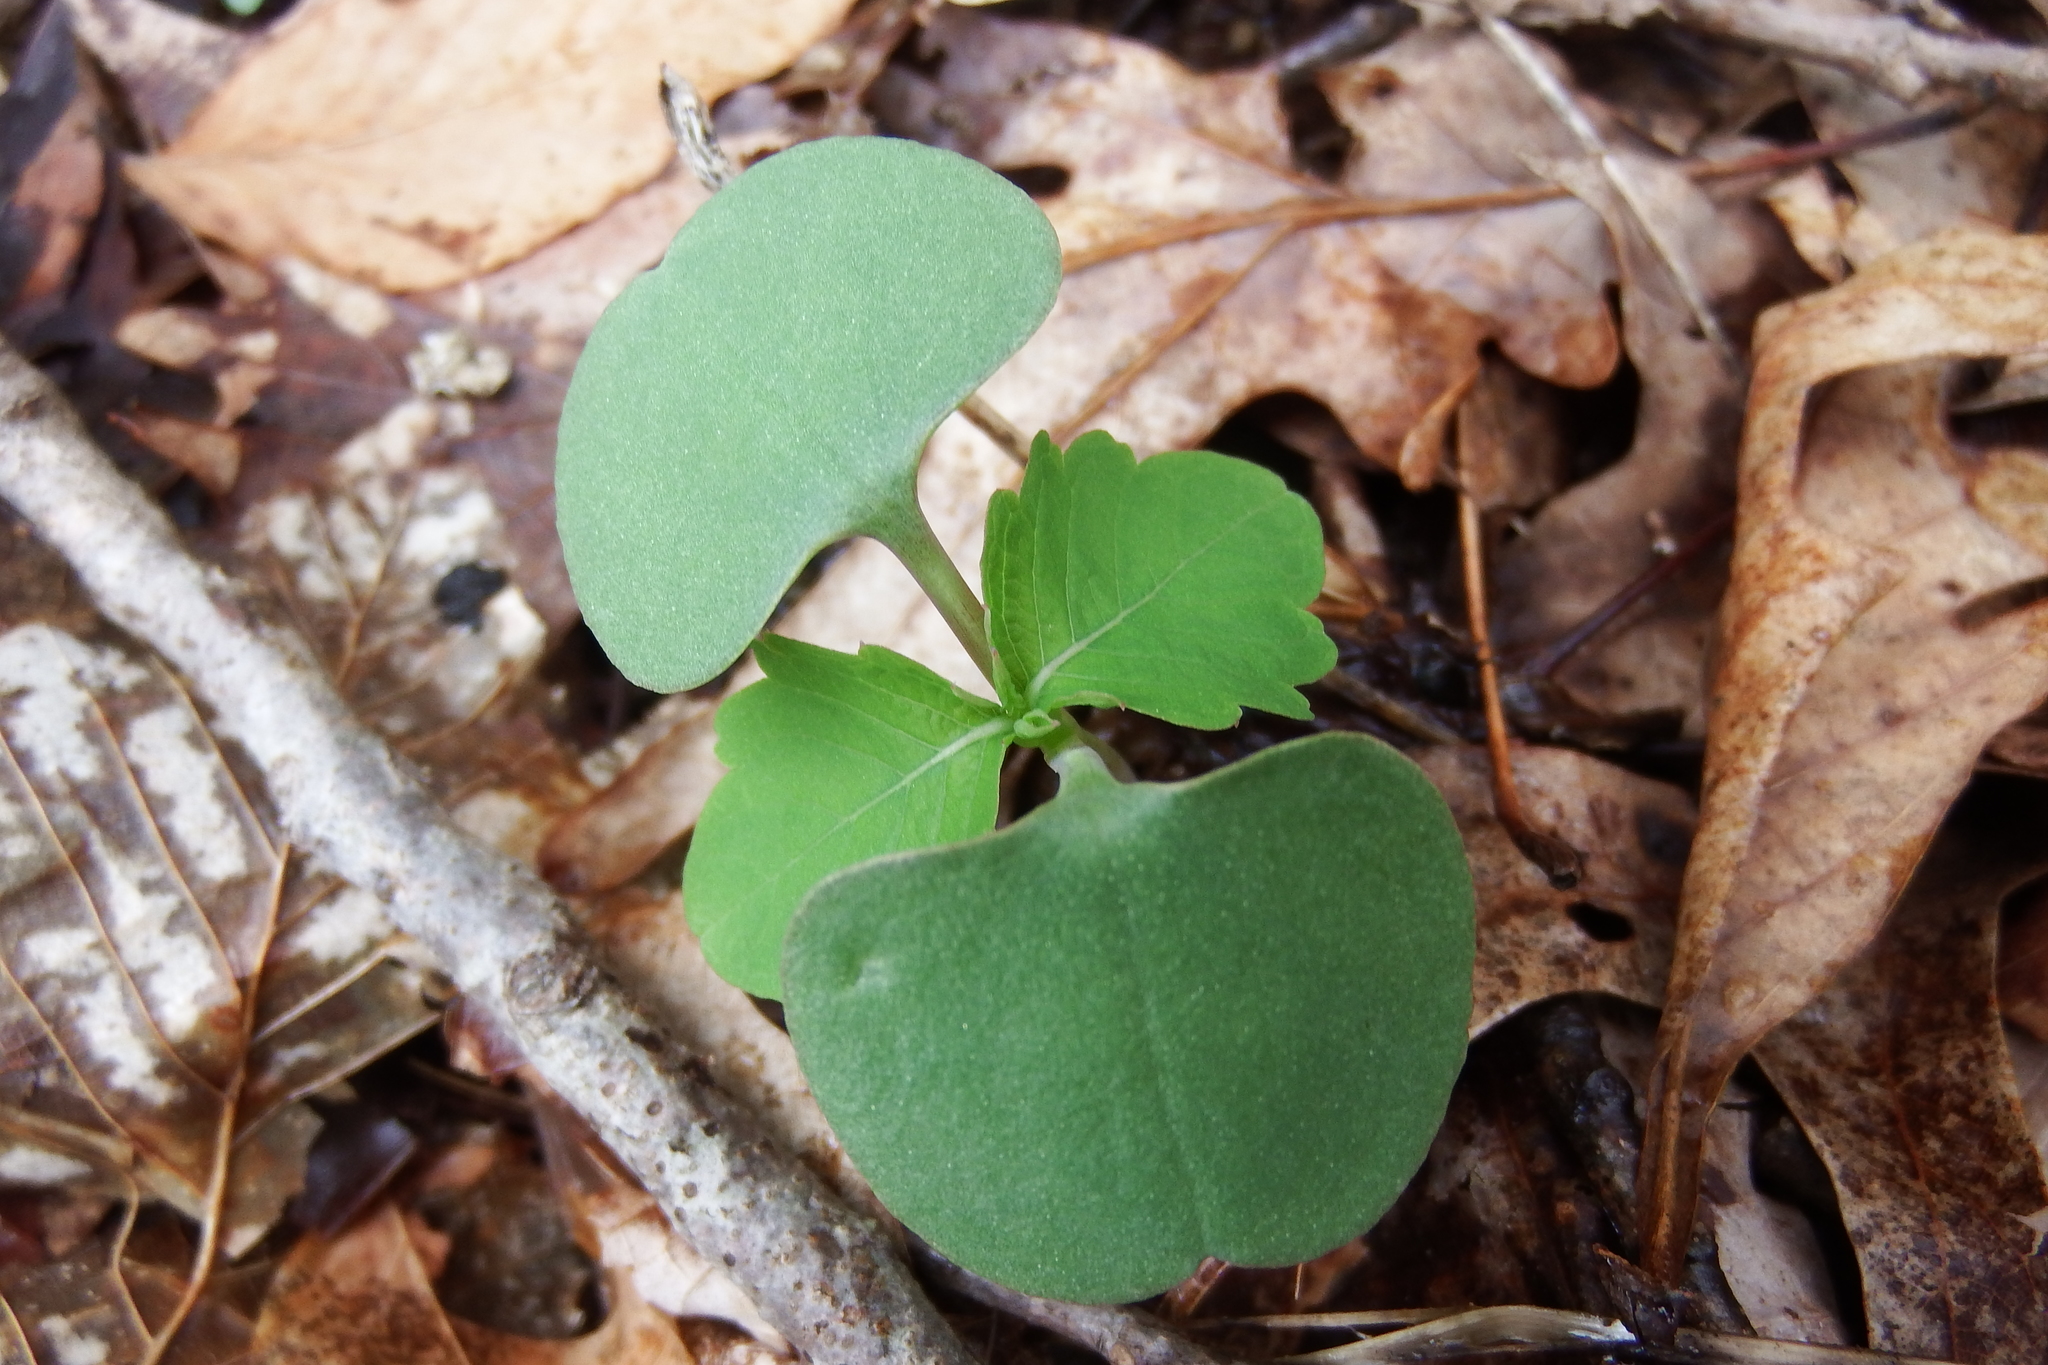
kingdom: Plantae
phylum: Tracheophyta
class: Magnoliopsida
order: Ericales
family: Balsaminaceae
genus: Impatiens
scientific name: Impatiens capensis
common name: Orange balsam
